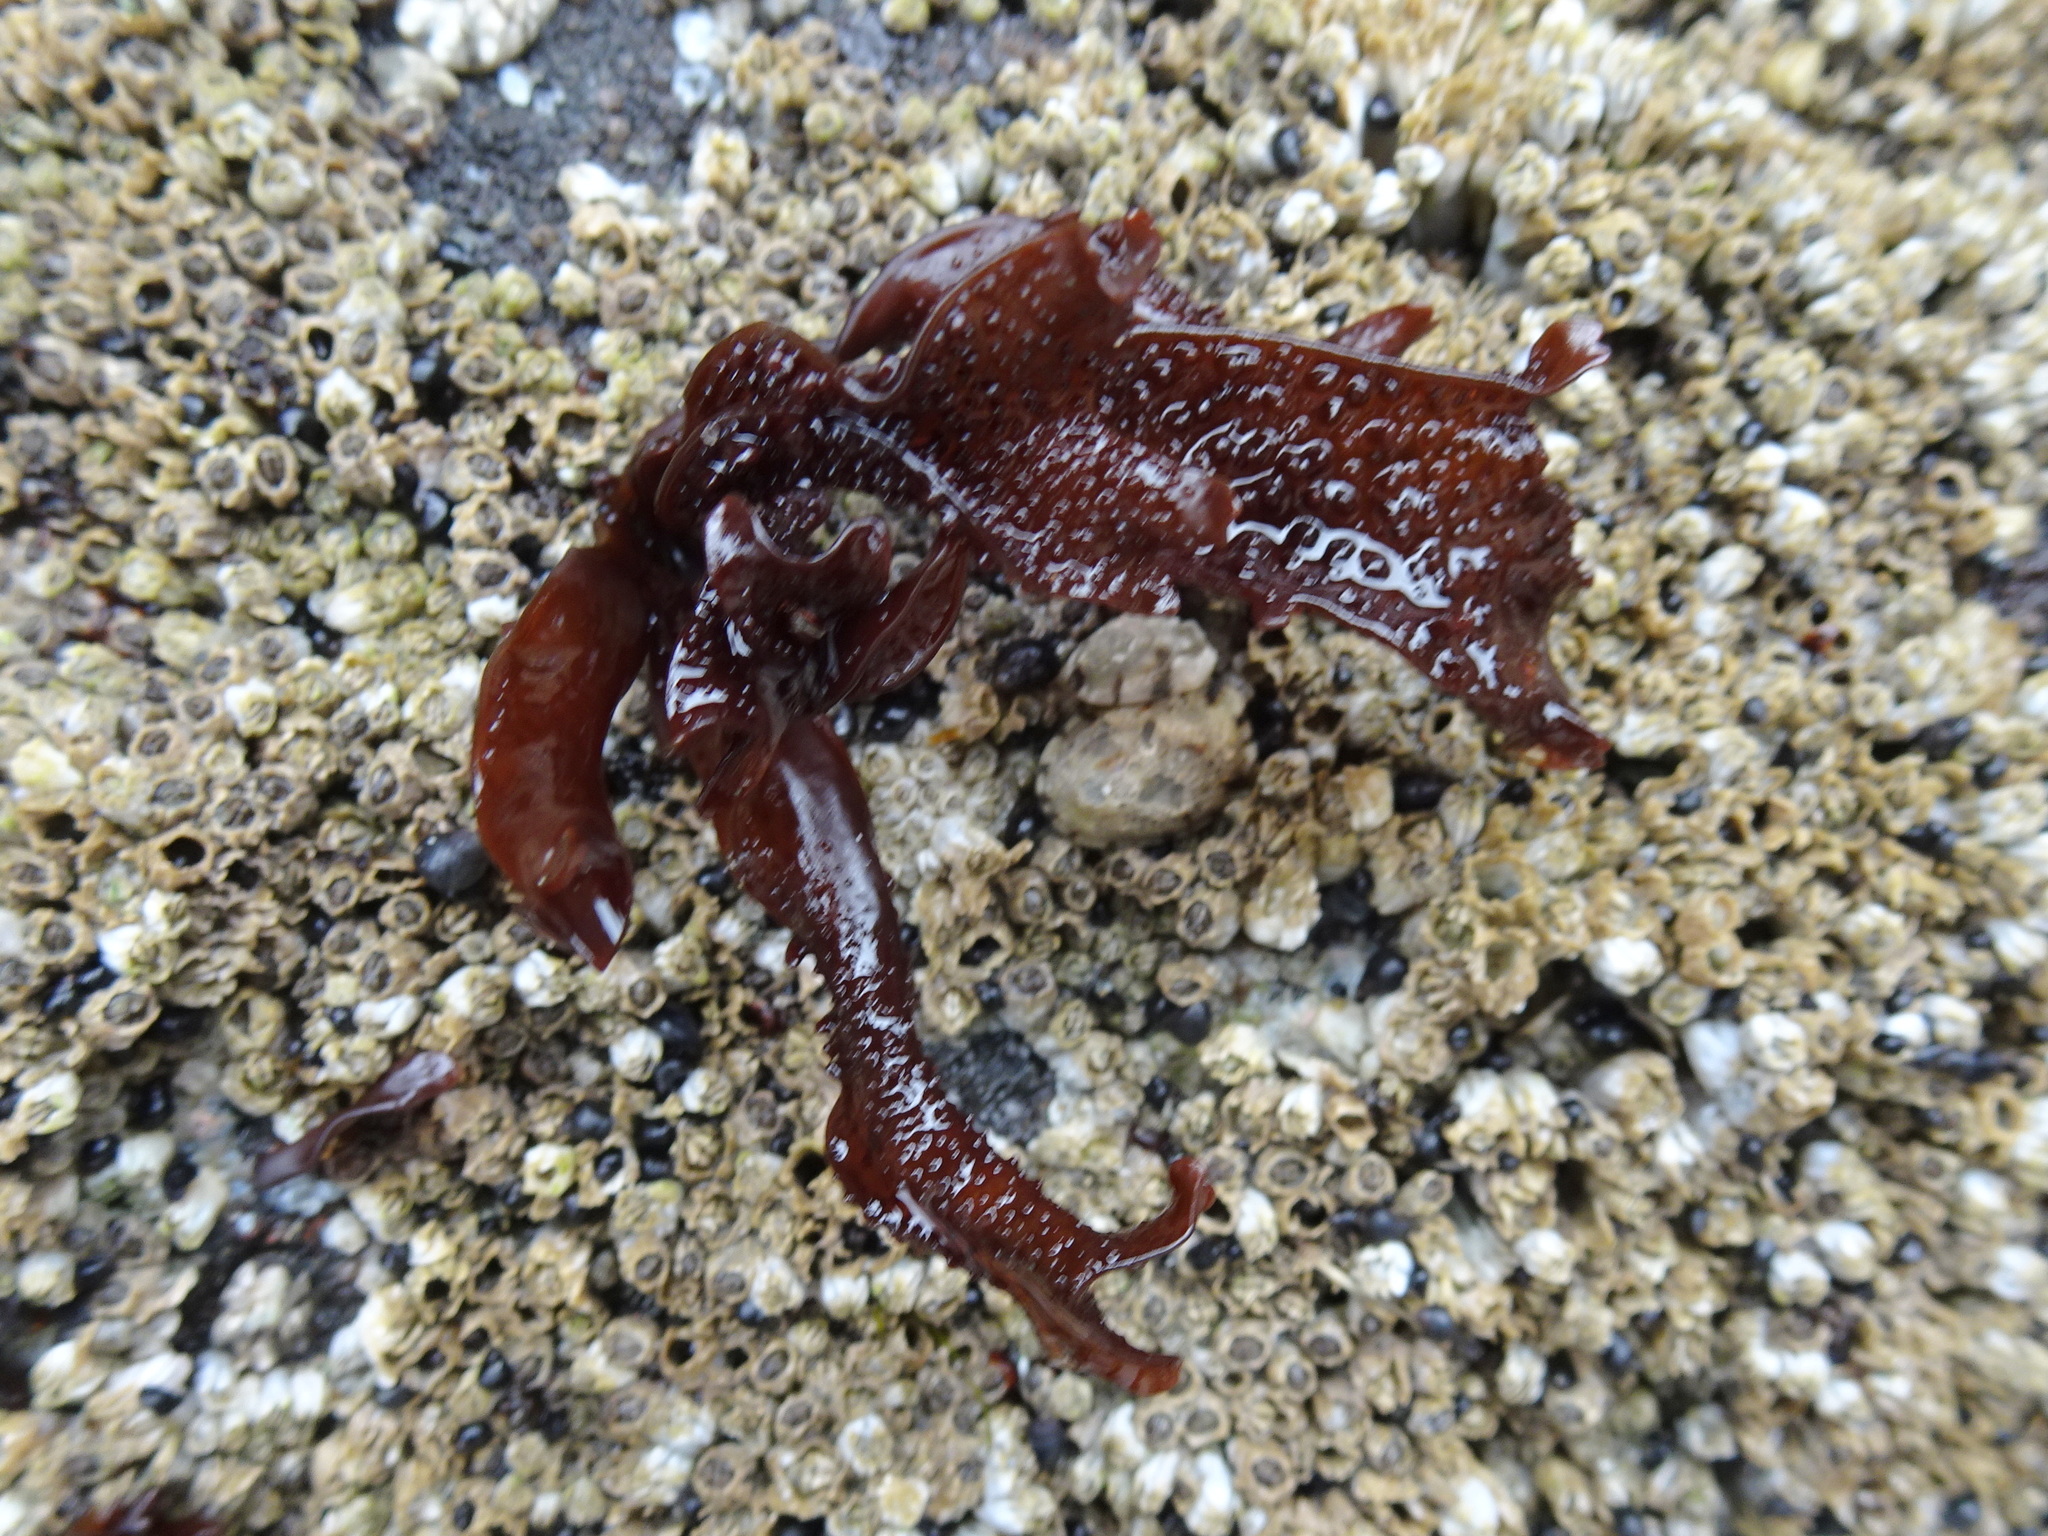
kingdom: Plantae
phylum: Rhodophyta
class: Florideophyceae
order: Gigartinales
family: Phyllophoraceae
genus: Mastocarpus
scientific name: Mastocarpus papillatus
